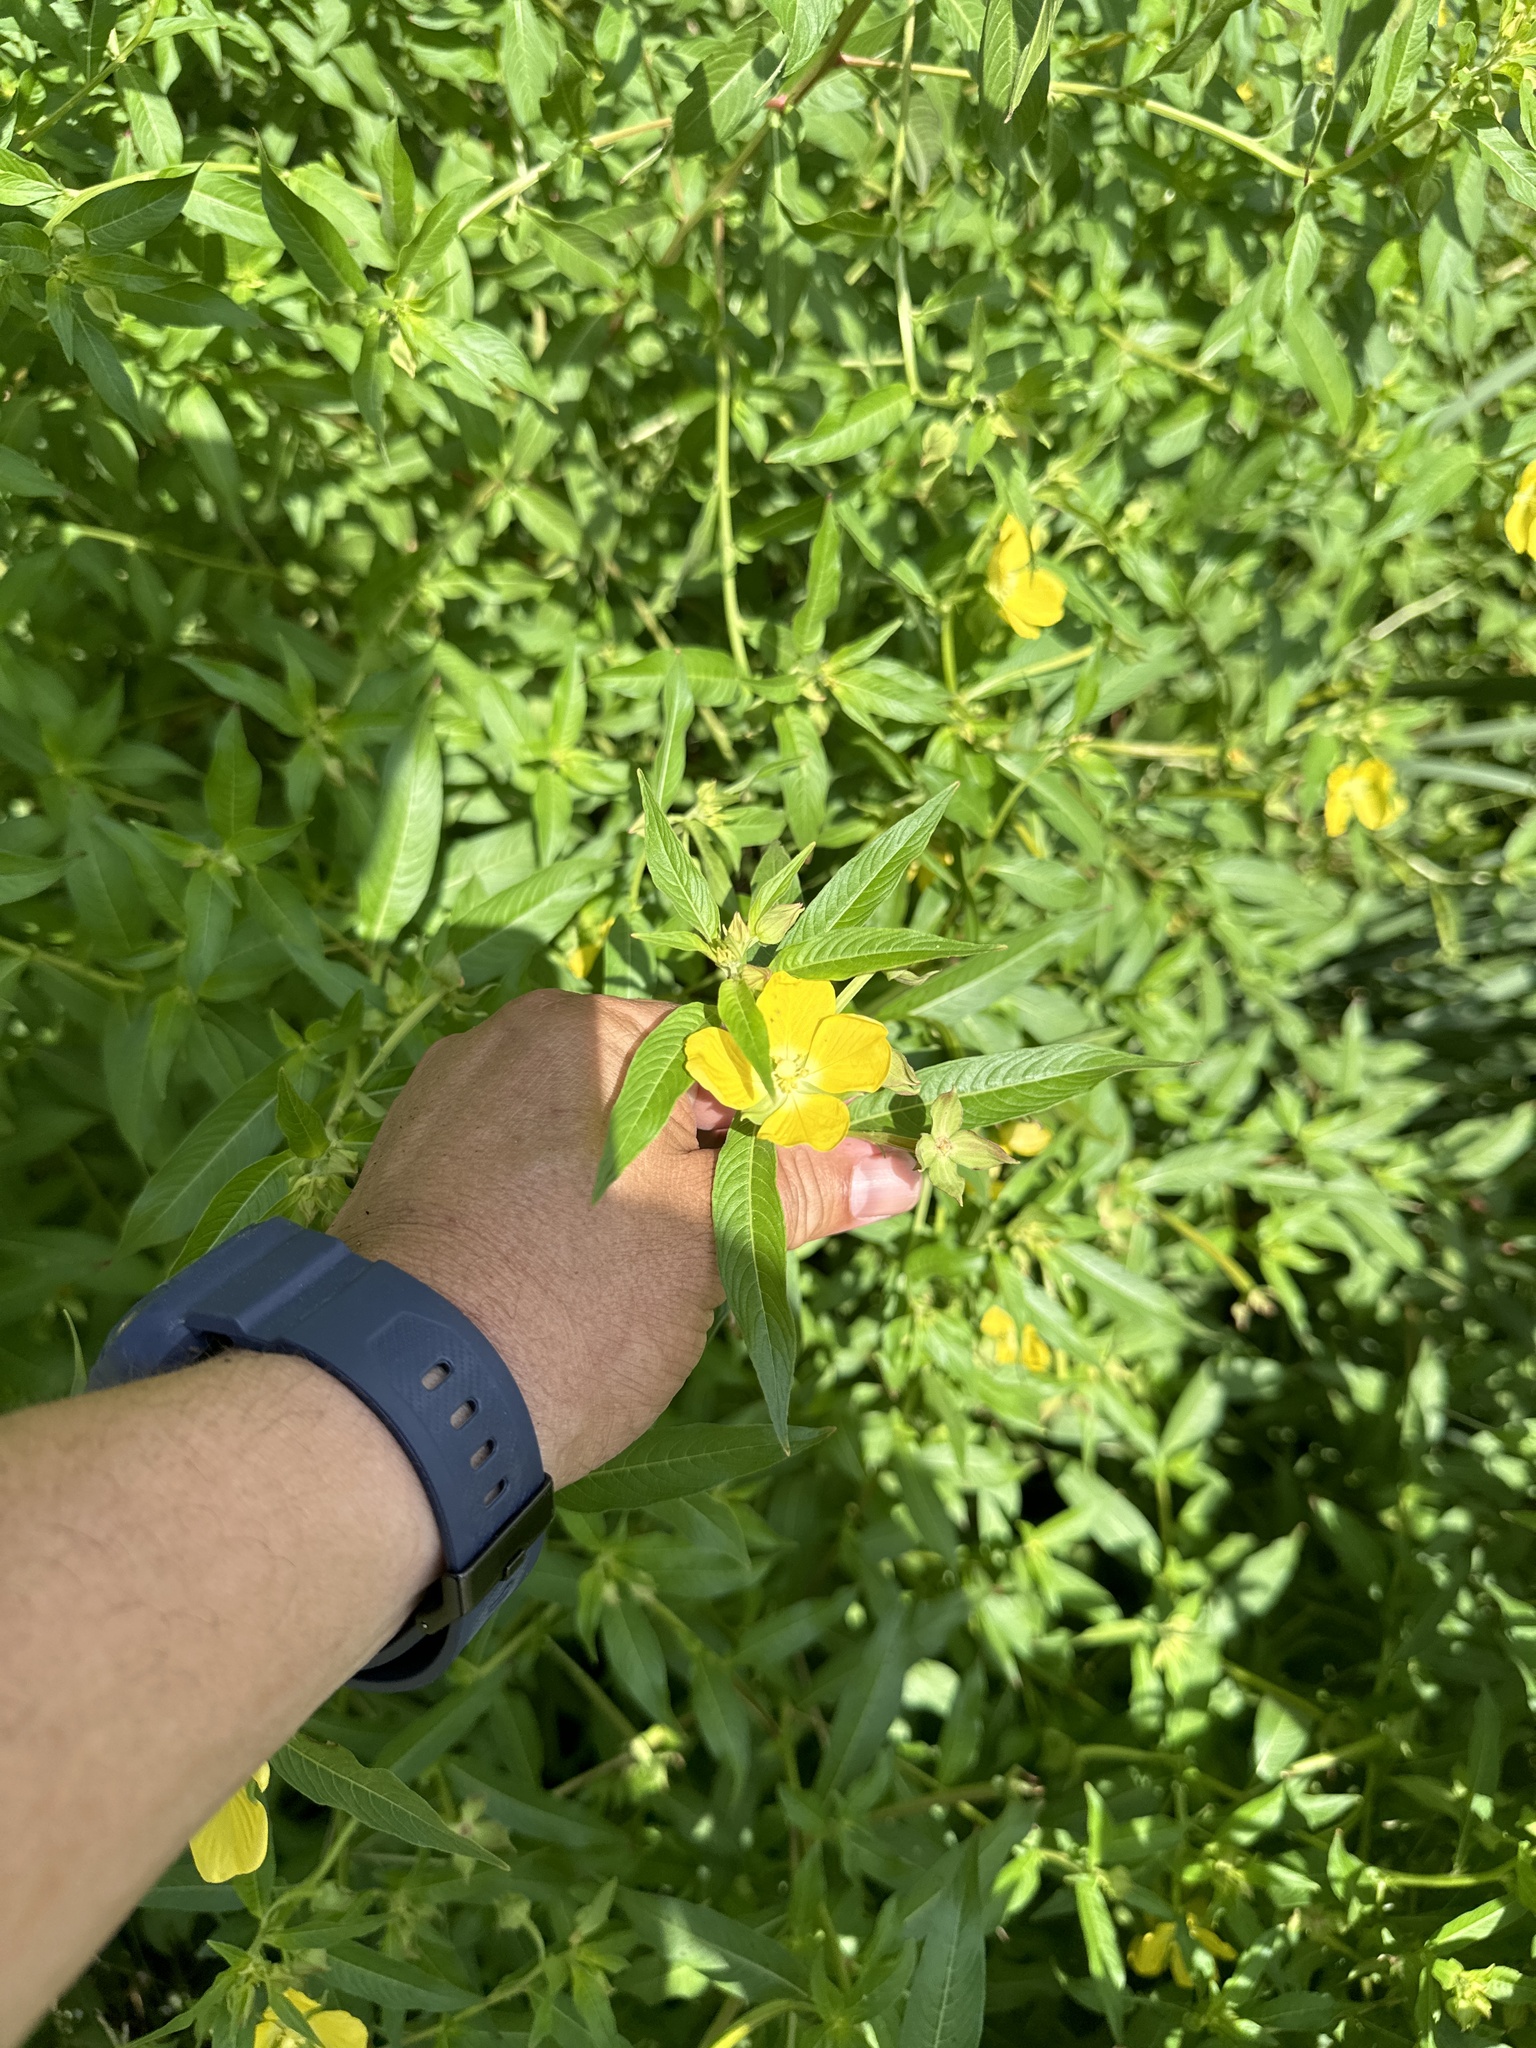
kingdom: Plantae
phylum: Tracheophyta
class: Magnoliopsida
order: Myrtales
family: Onagraceae
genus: Ludwigia
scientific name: Ludwigia octovalvis
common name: Water-primrose
